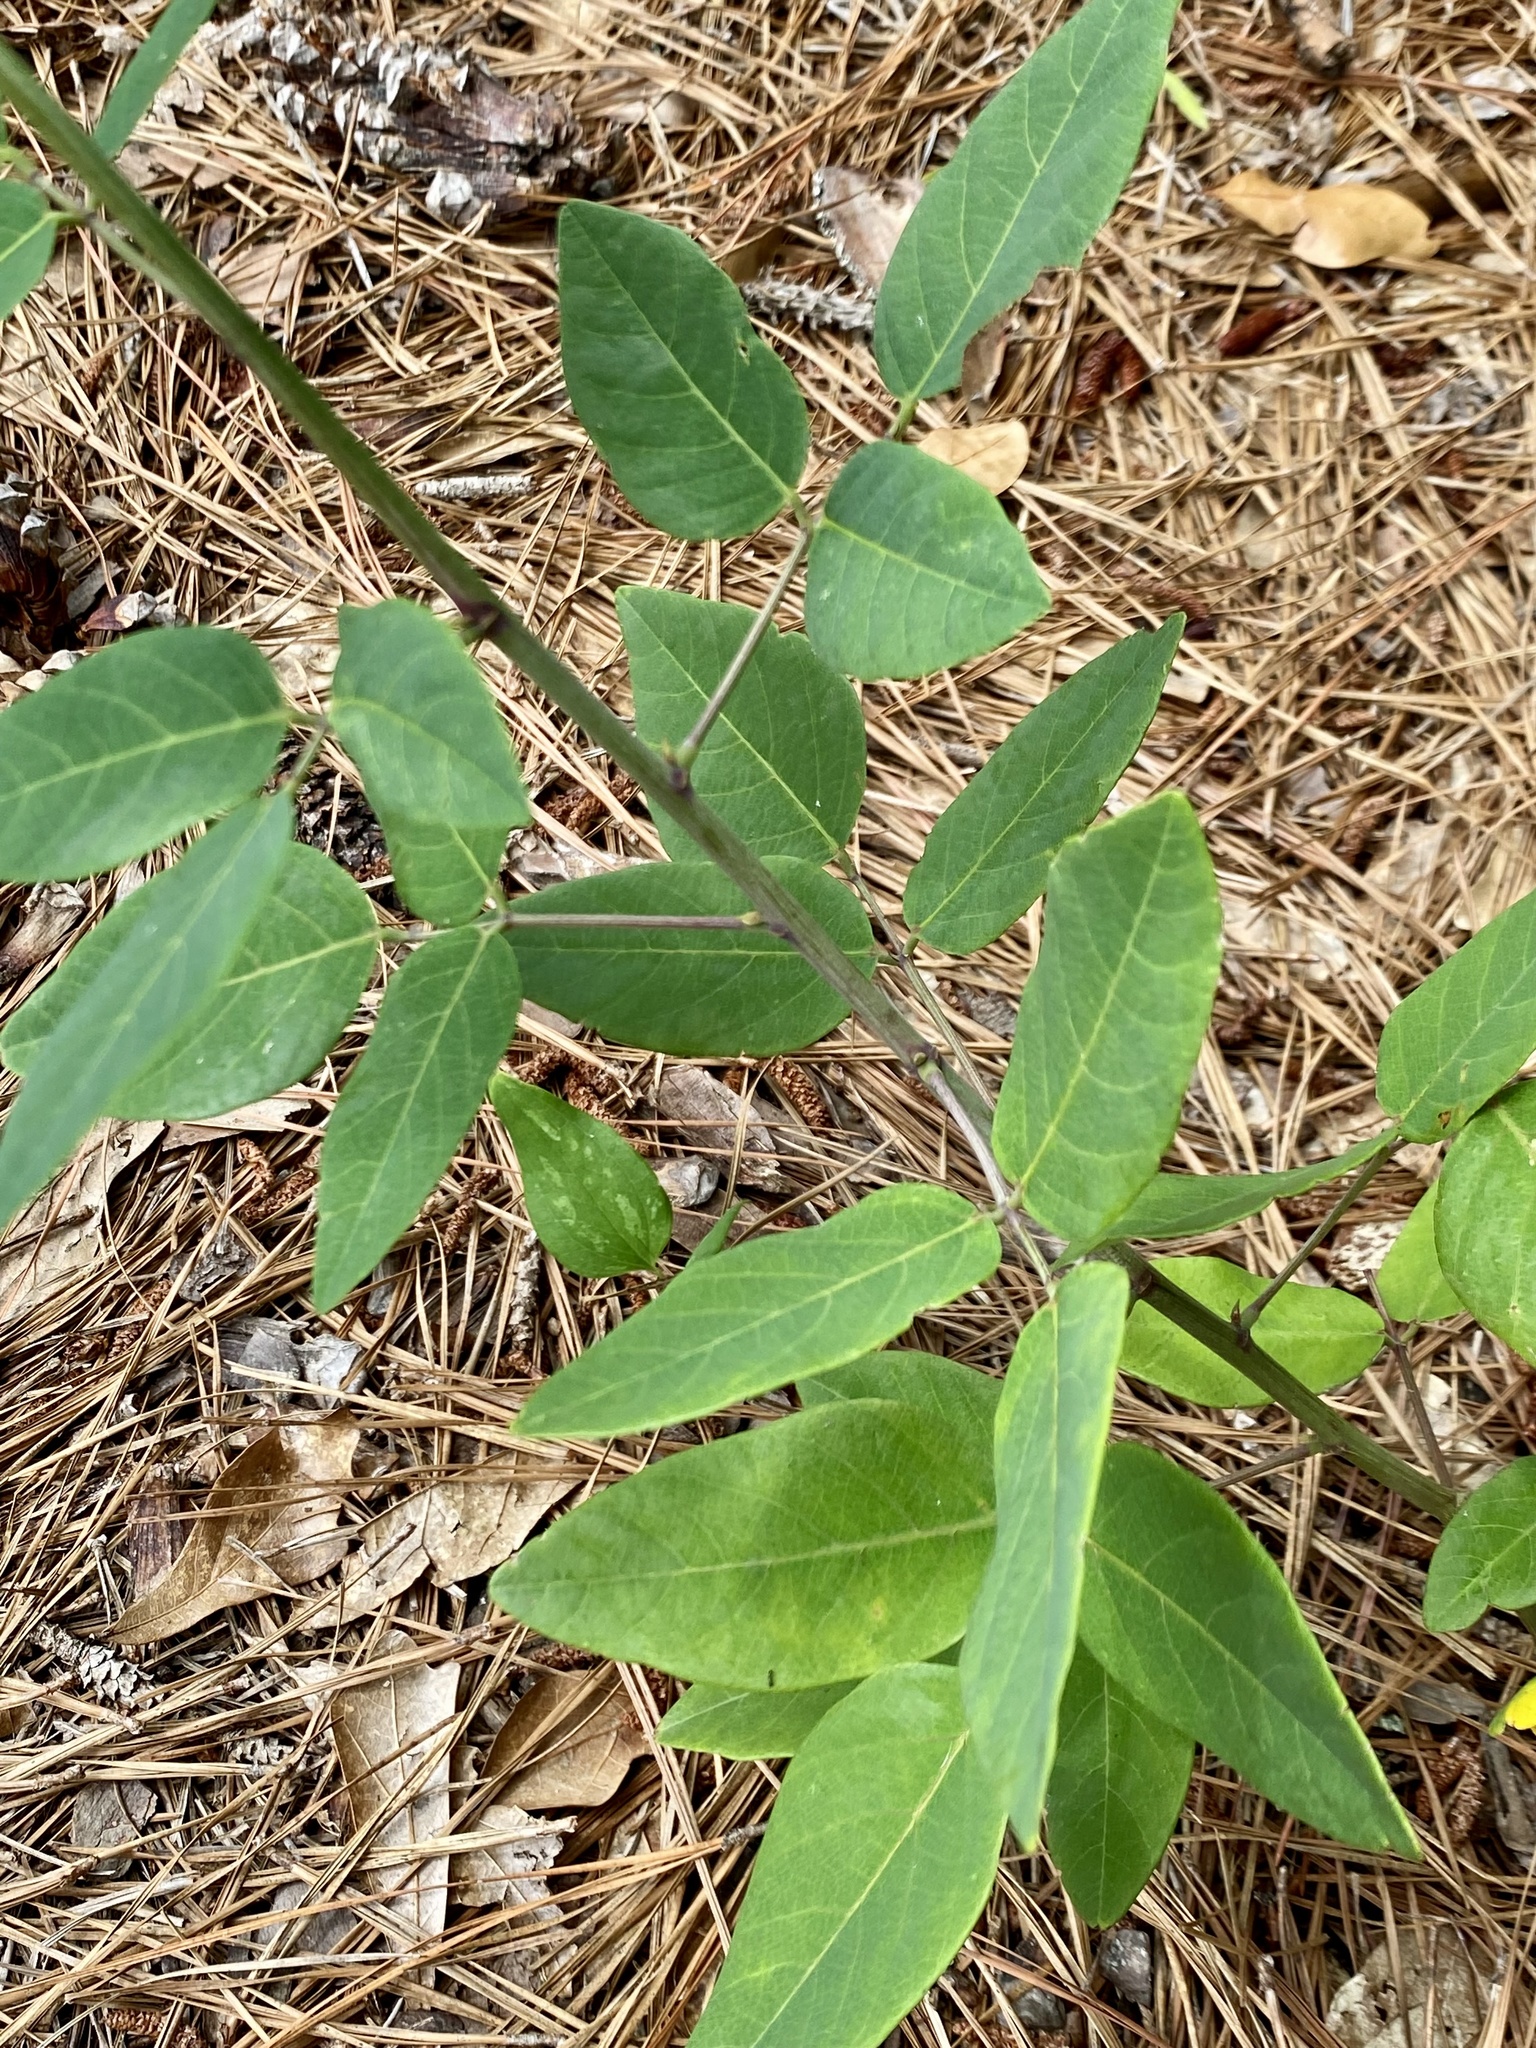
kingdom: Plantae
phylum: Tracheophyta
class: Magnoliopsida
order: Fabales
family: Fabaceae
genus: Desmodium
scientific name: Desmodium laevigatum
